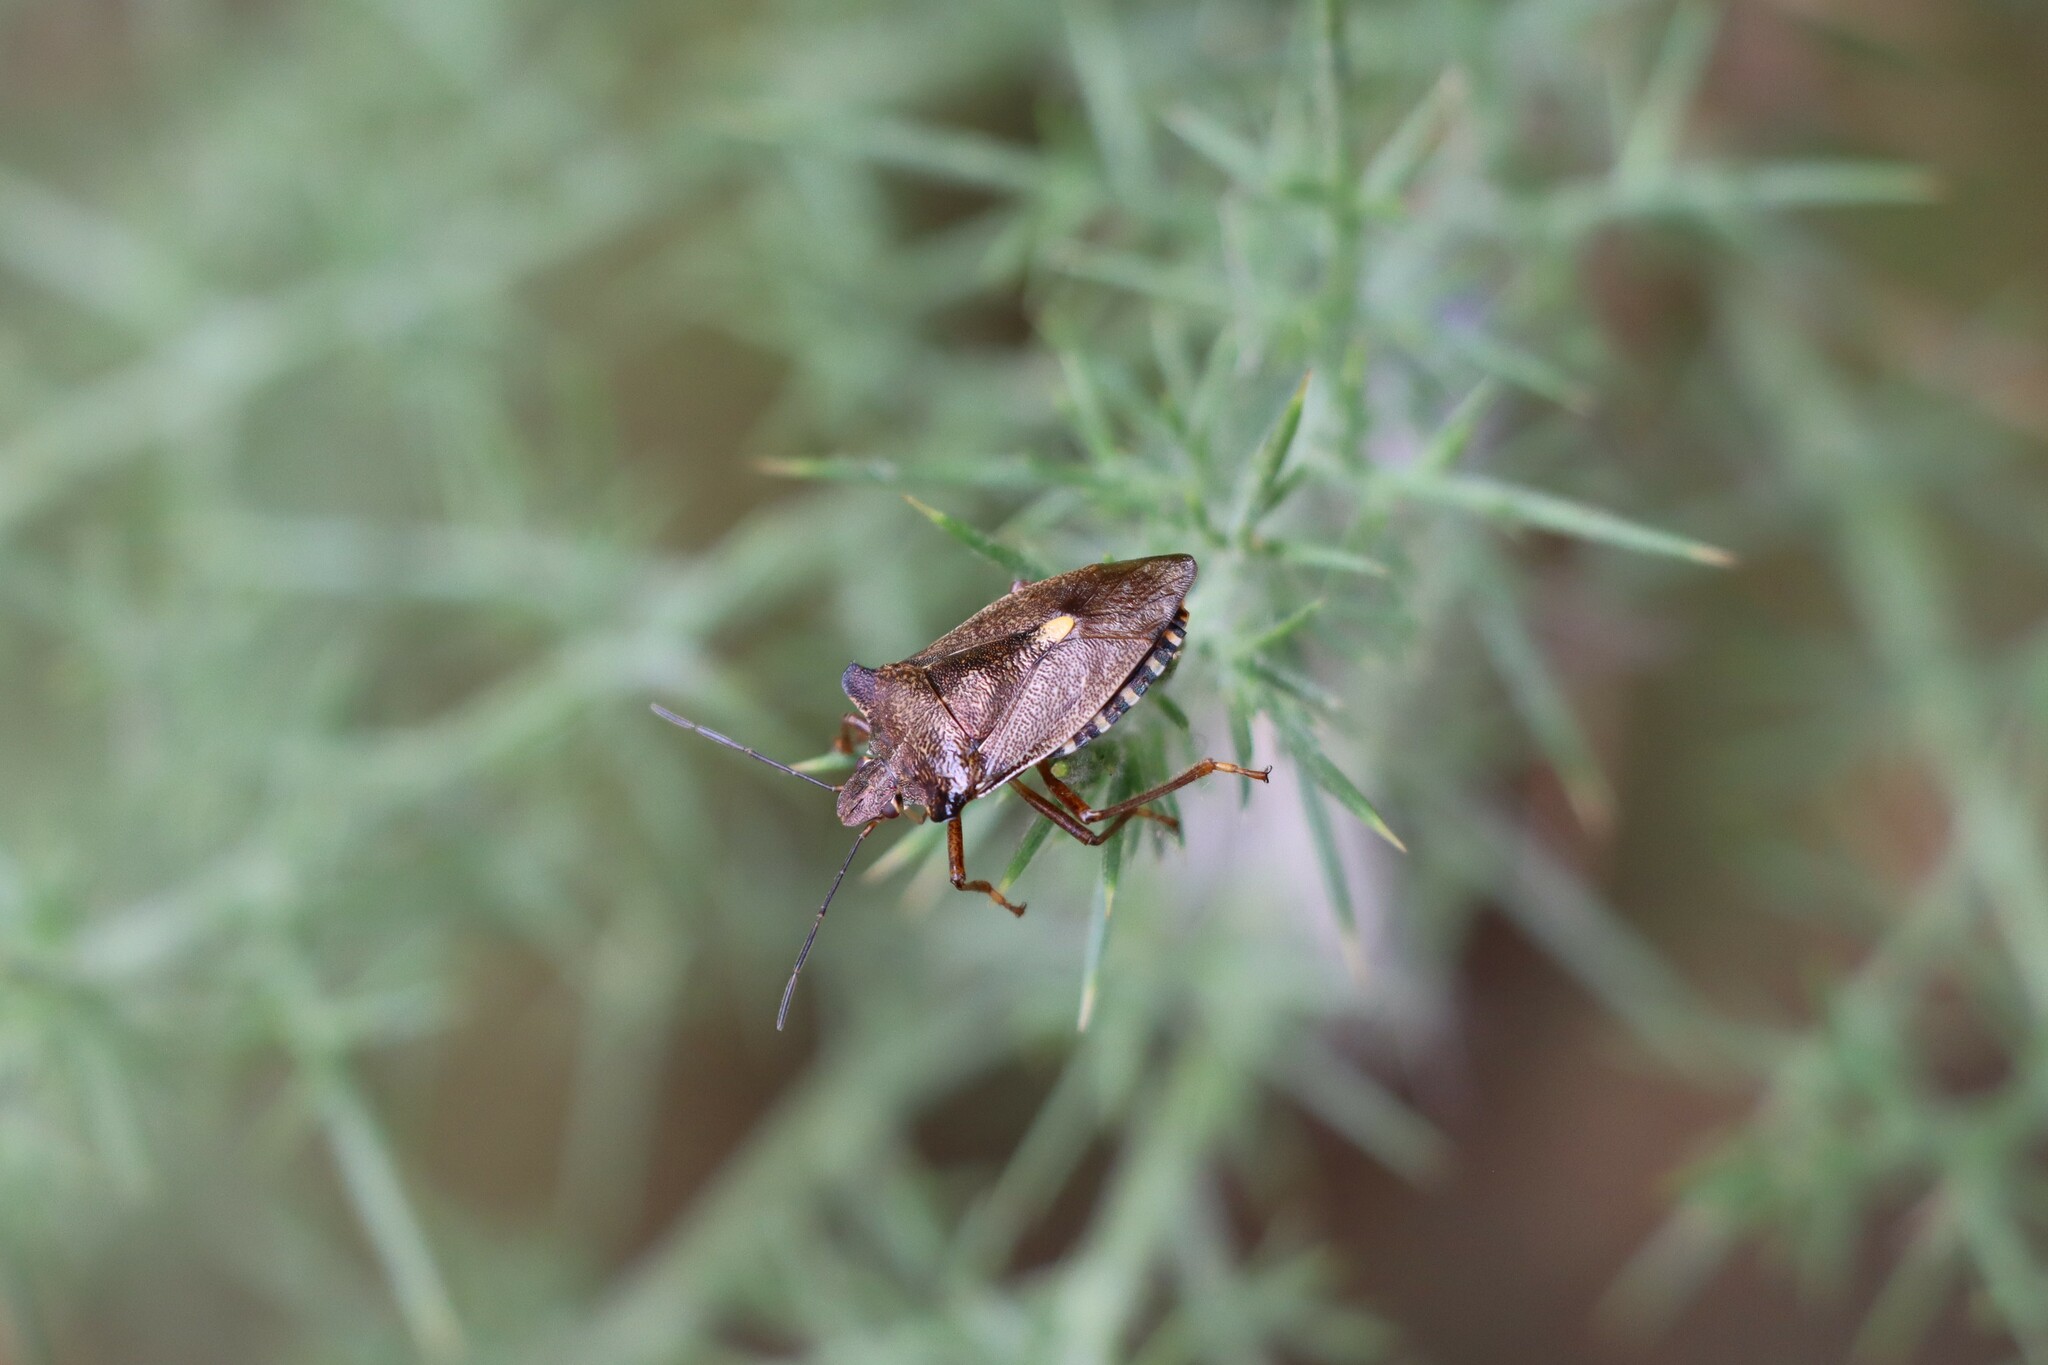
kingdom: Animalia
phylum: Arthropoda
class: Insecta
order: Hemiptera
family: Pentatomidae
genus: Pentatoma
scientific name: Pentatoma rufipes
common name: Forest bug
